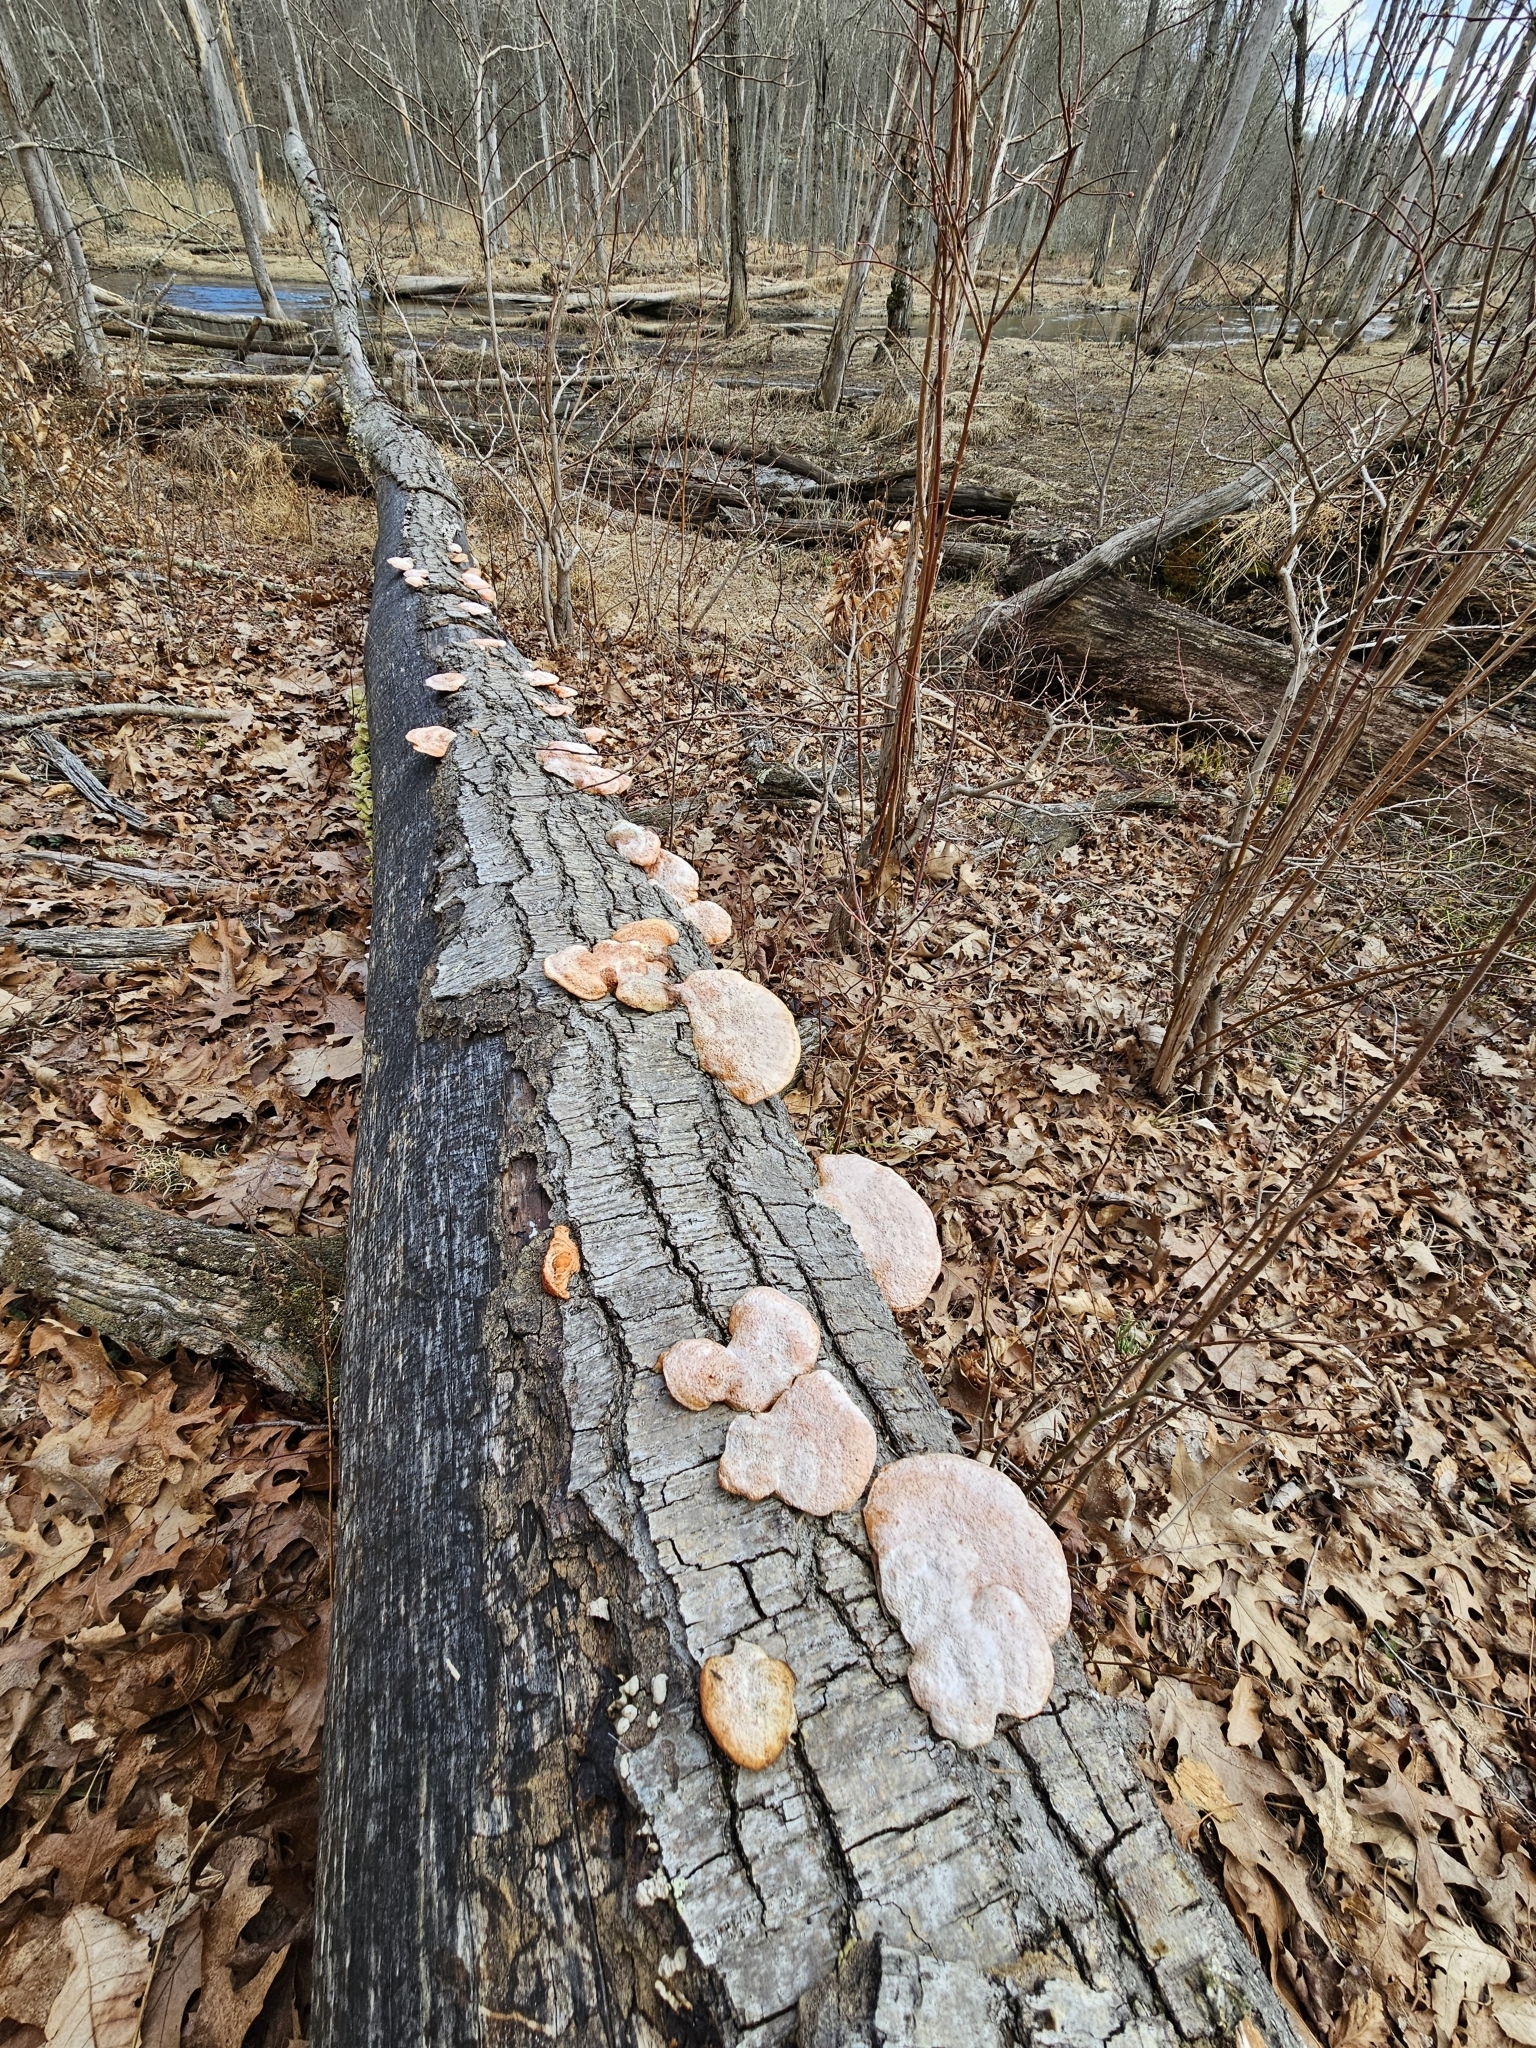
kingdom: Fungi
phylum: Basidiomycota
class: Agaricomycetes
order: Polyporales
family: Polyporaceae
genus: Trametes
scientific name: Trametes cinnabarina
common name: Northern cinnabar polypore
